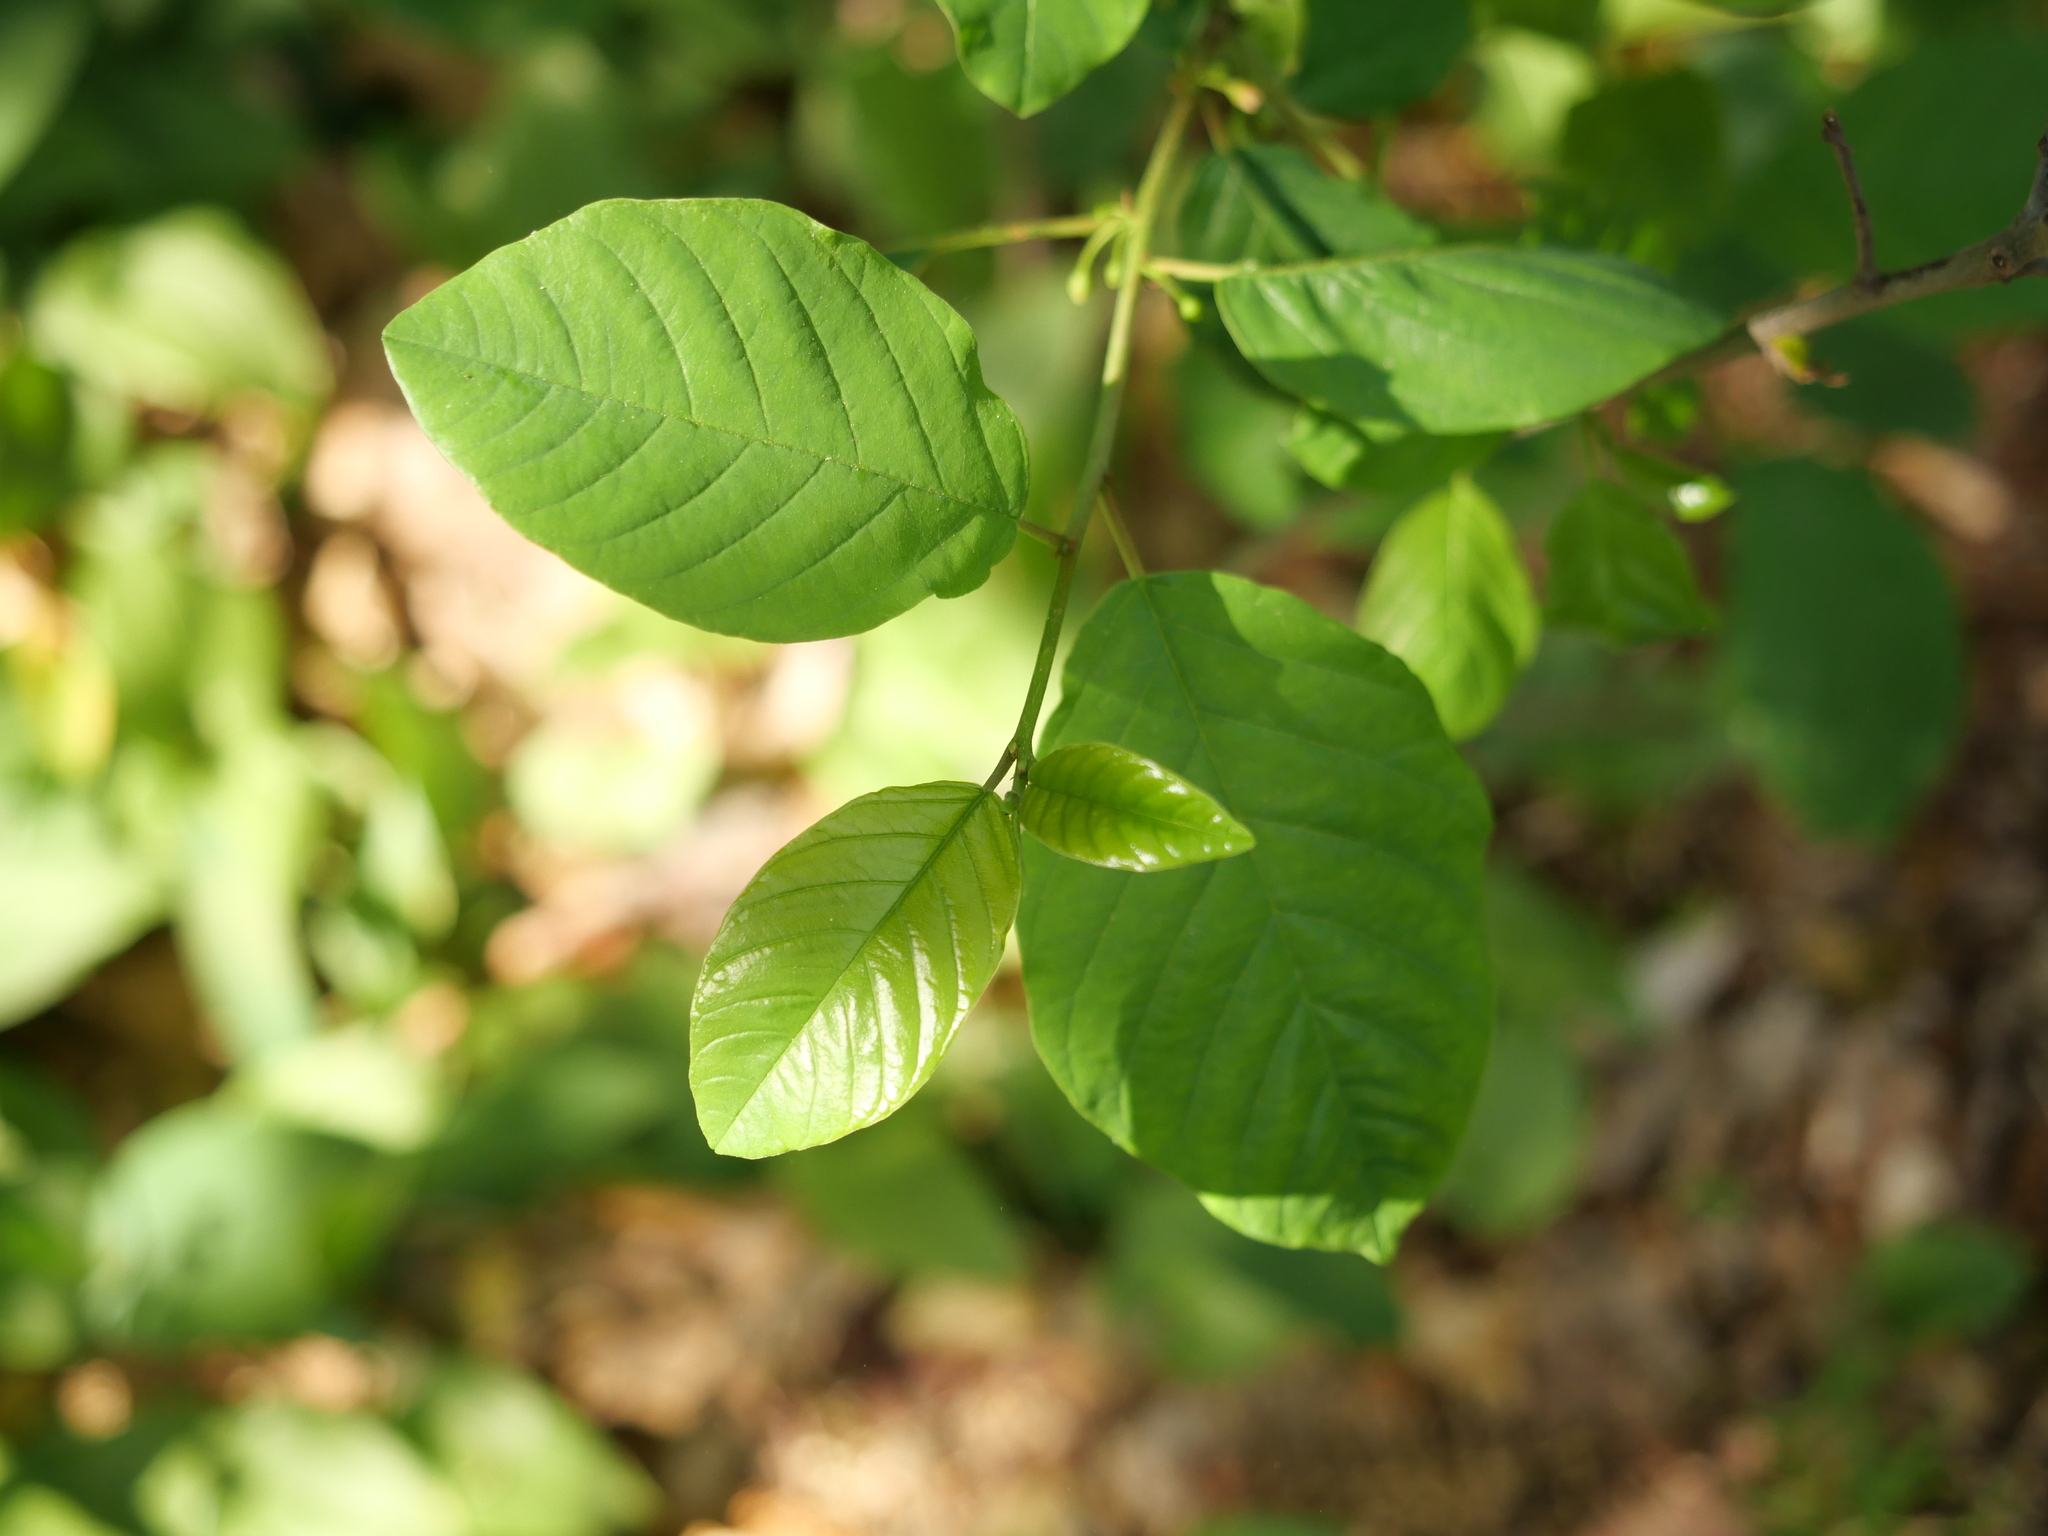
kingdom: Plantae
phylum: Tracheophyta
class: Magnoliopsida
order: Rosales
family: Rhamnaceae
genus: Frangula
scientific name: Frangula alnus
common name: Alder buckthorn
